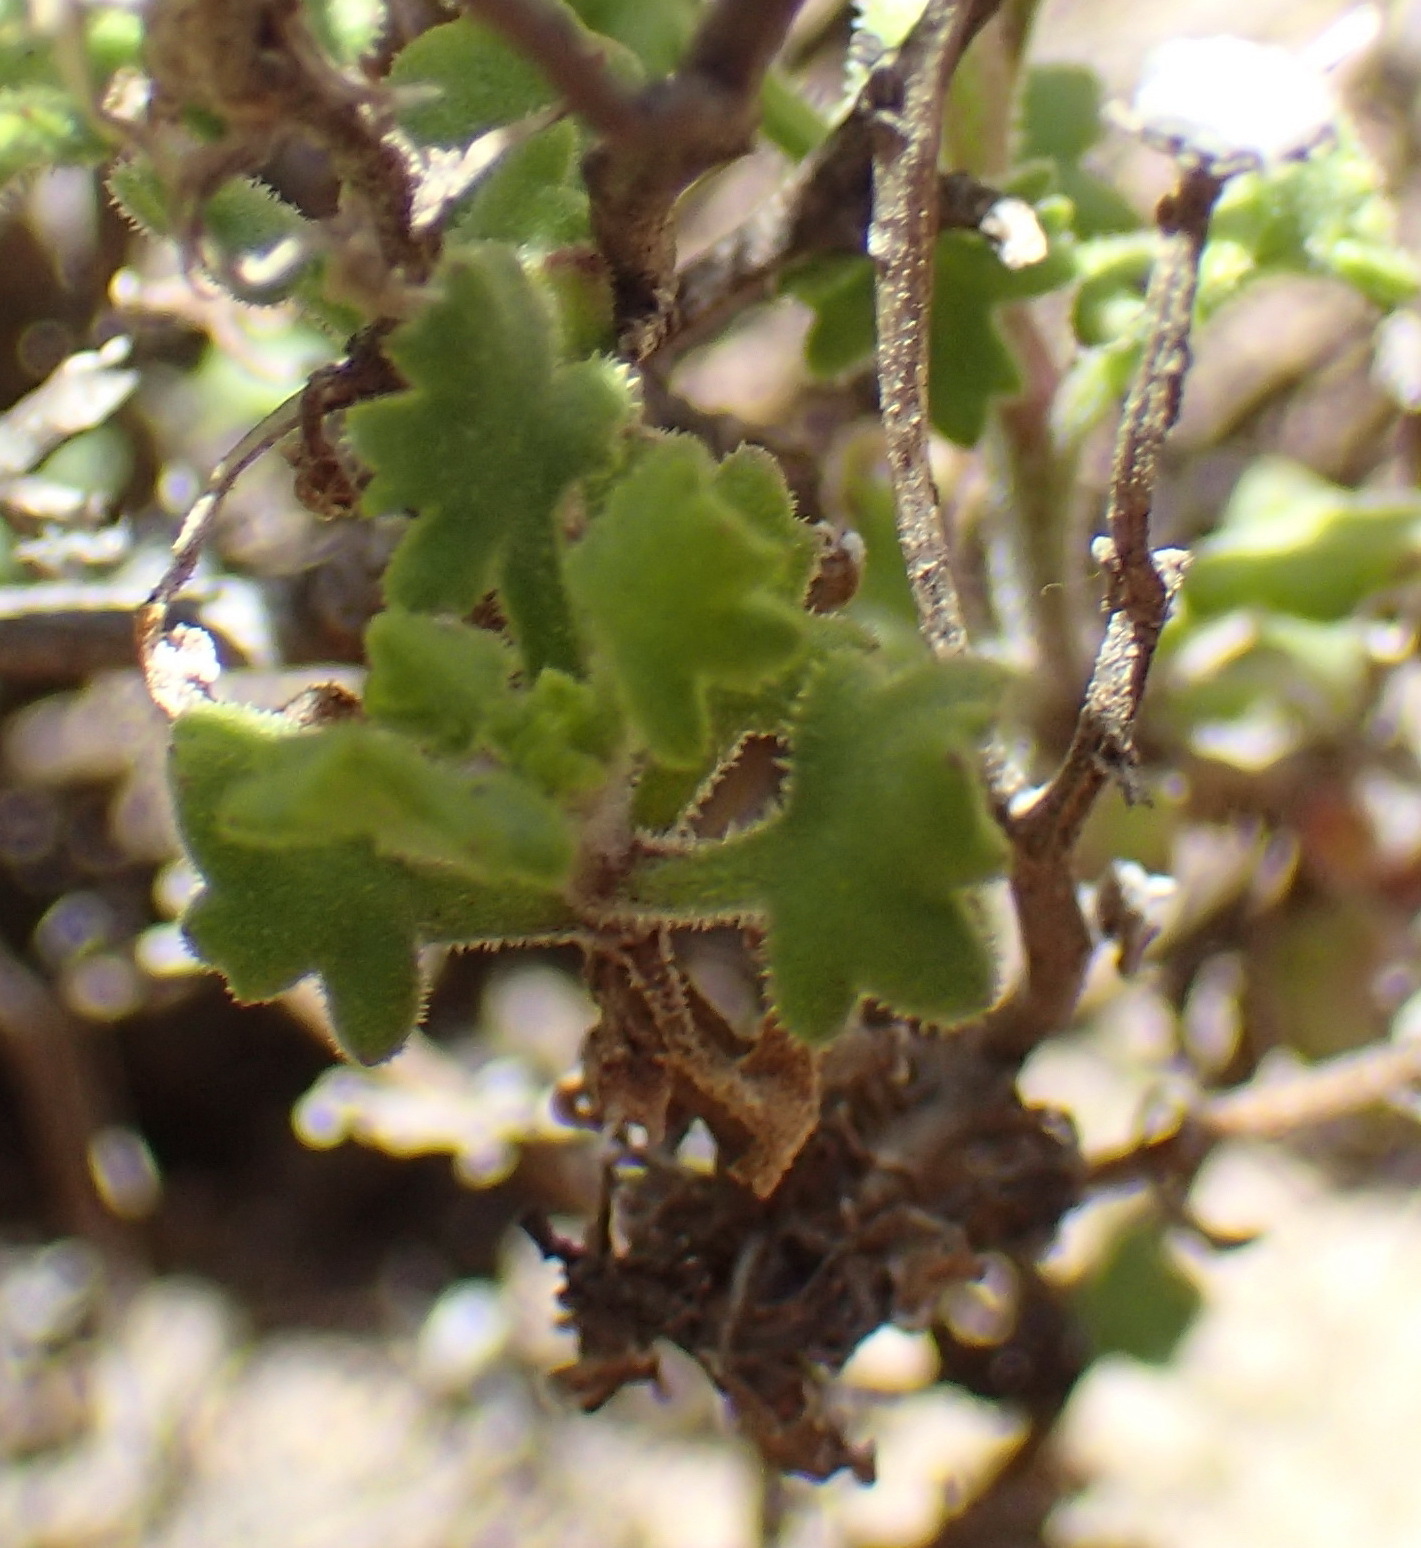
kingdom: Plantae
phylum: Tracheophyta
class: Magnoliopsida
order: Asterales
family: Asteraceae
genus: Senecio
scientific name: Senecio tortuosus
